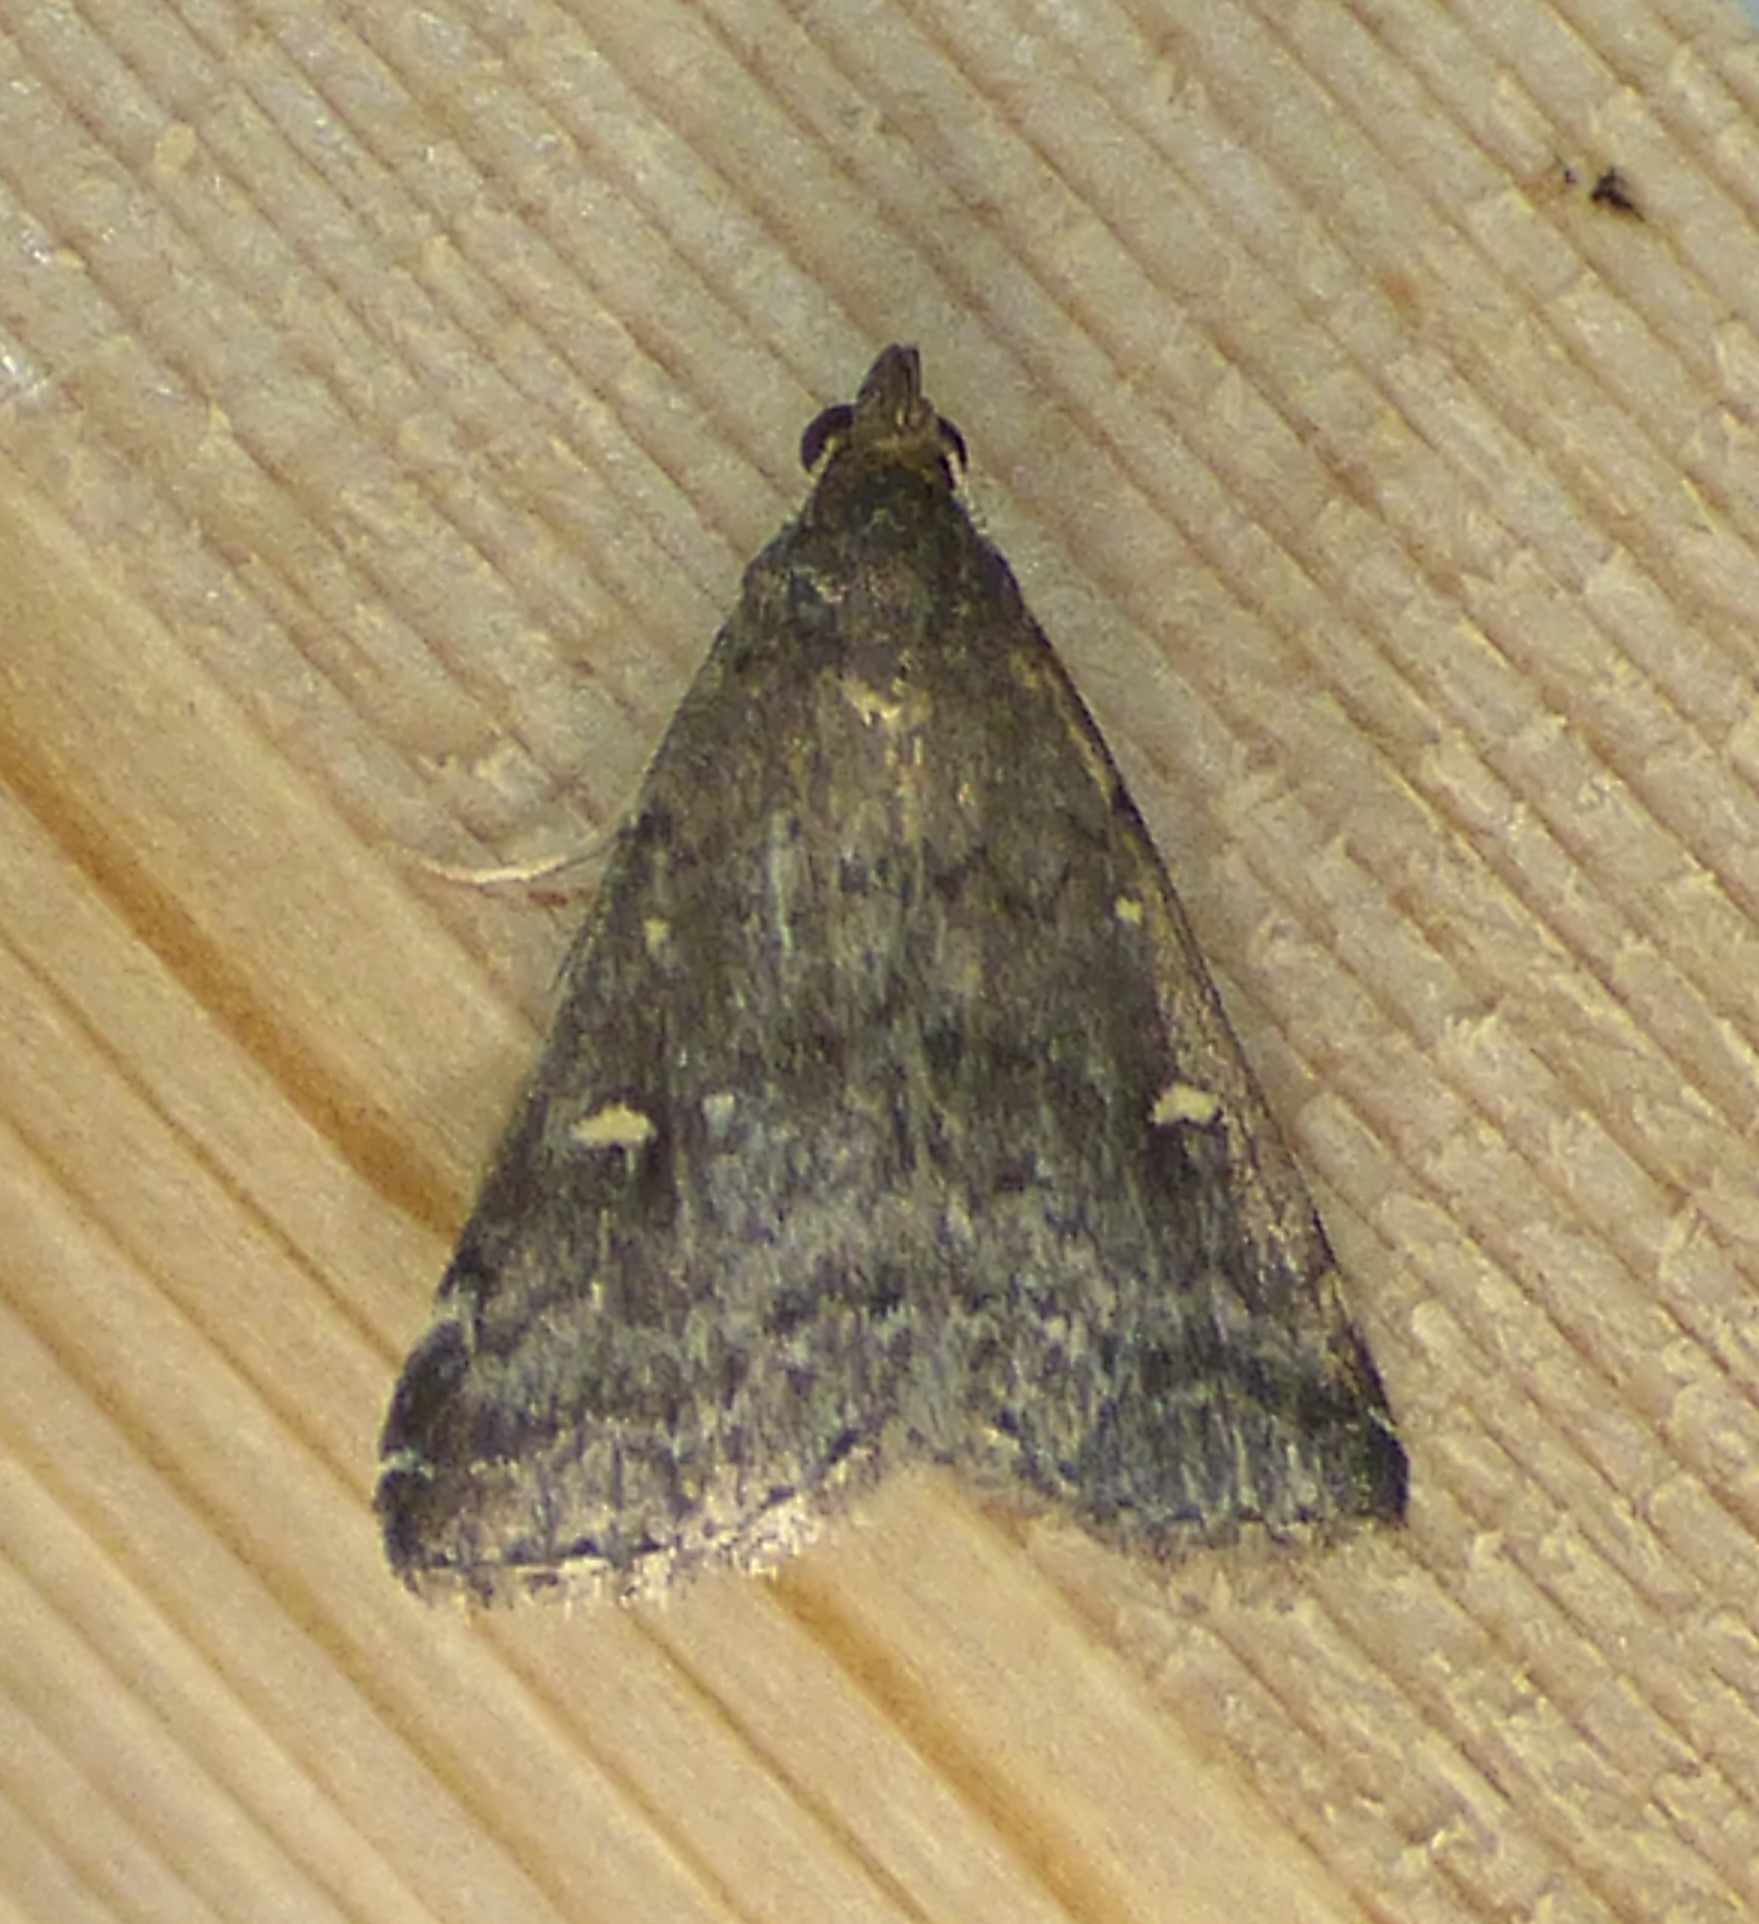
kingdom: Animalia
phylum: Arthropoda
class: Insecta
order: Lepidoptera
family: Erebidae
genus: Tetanolita
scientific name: Tetanolita mynesalis
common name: Smoky tetanolita moth
